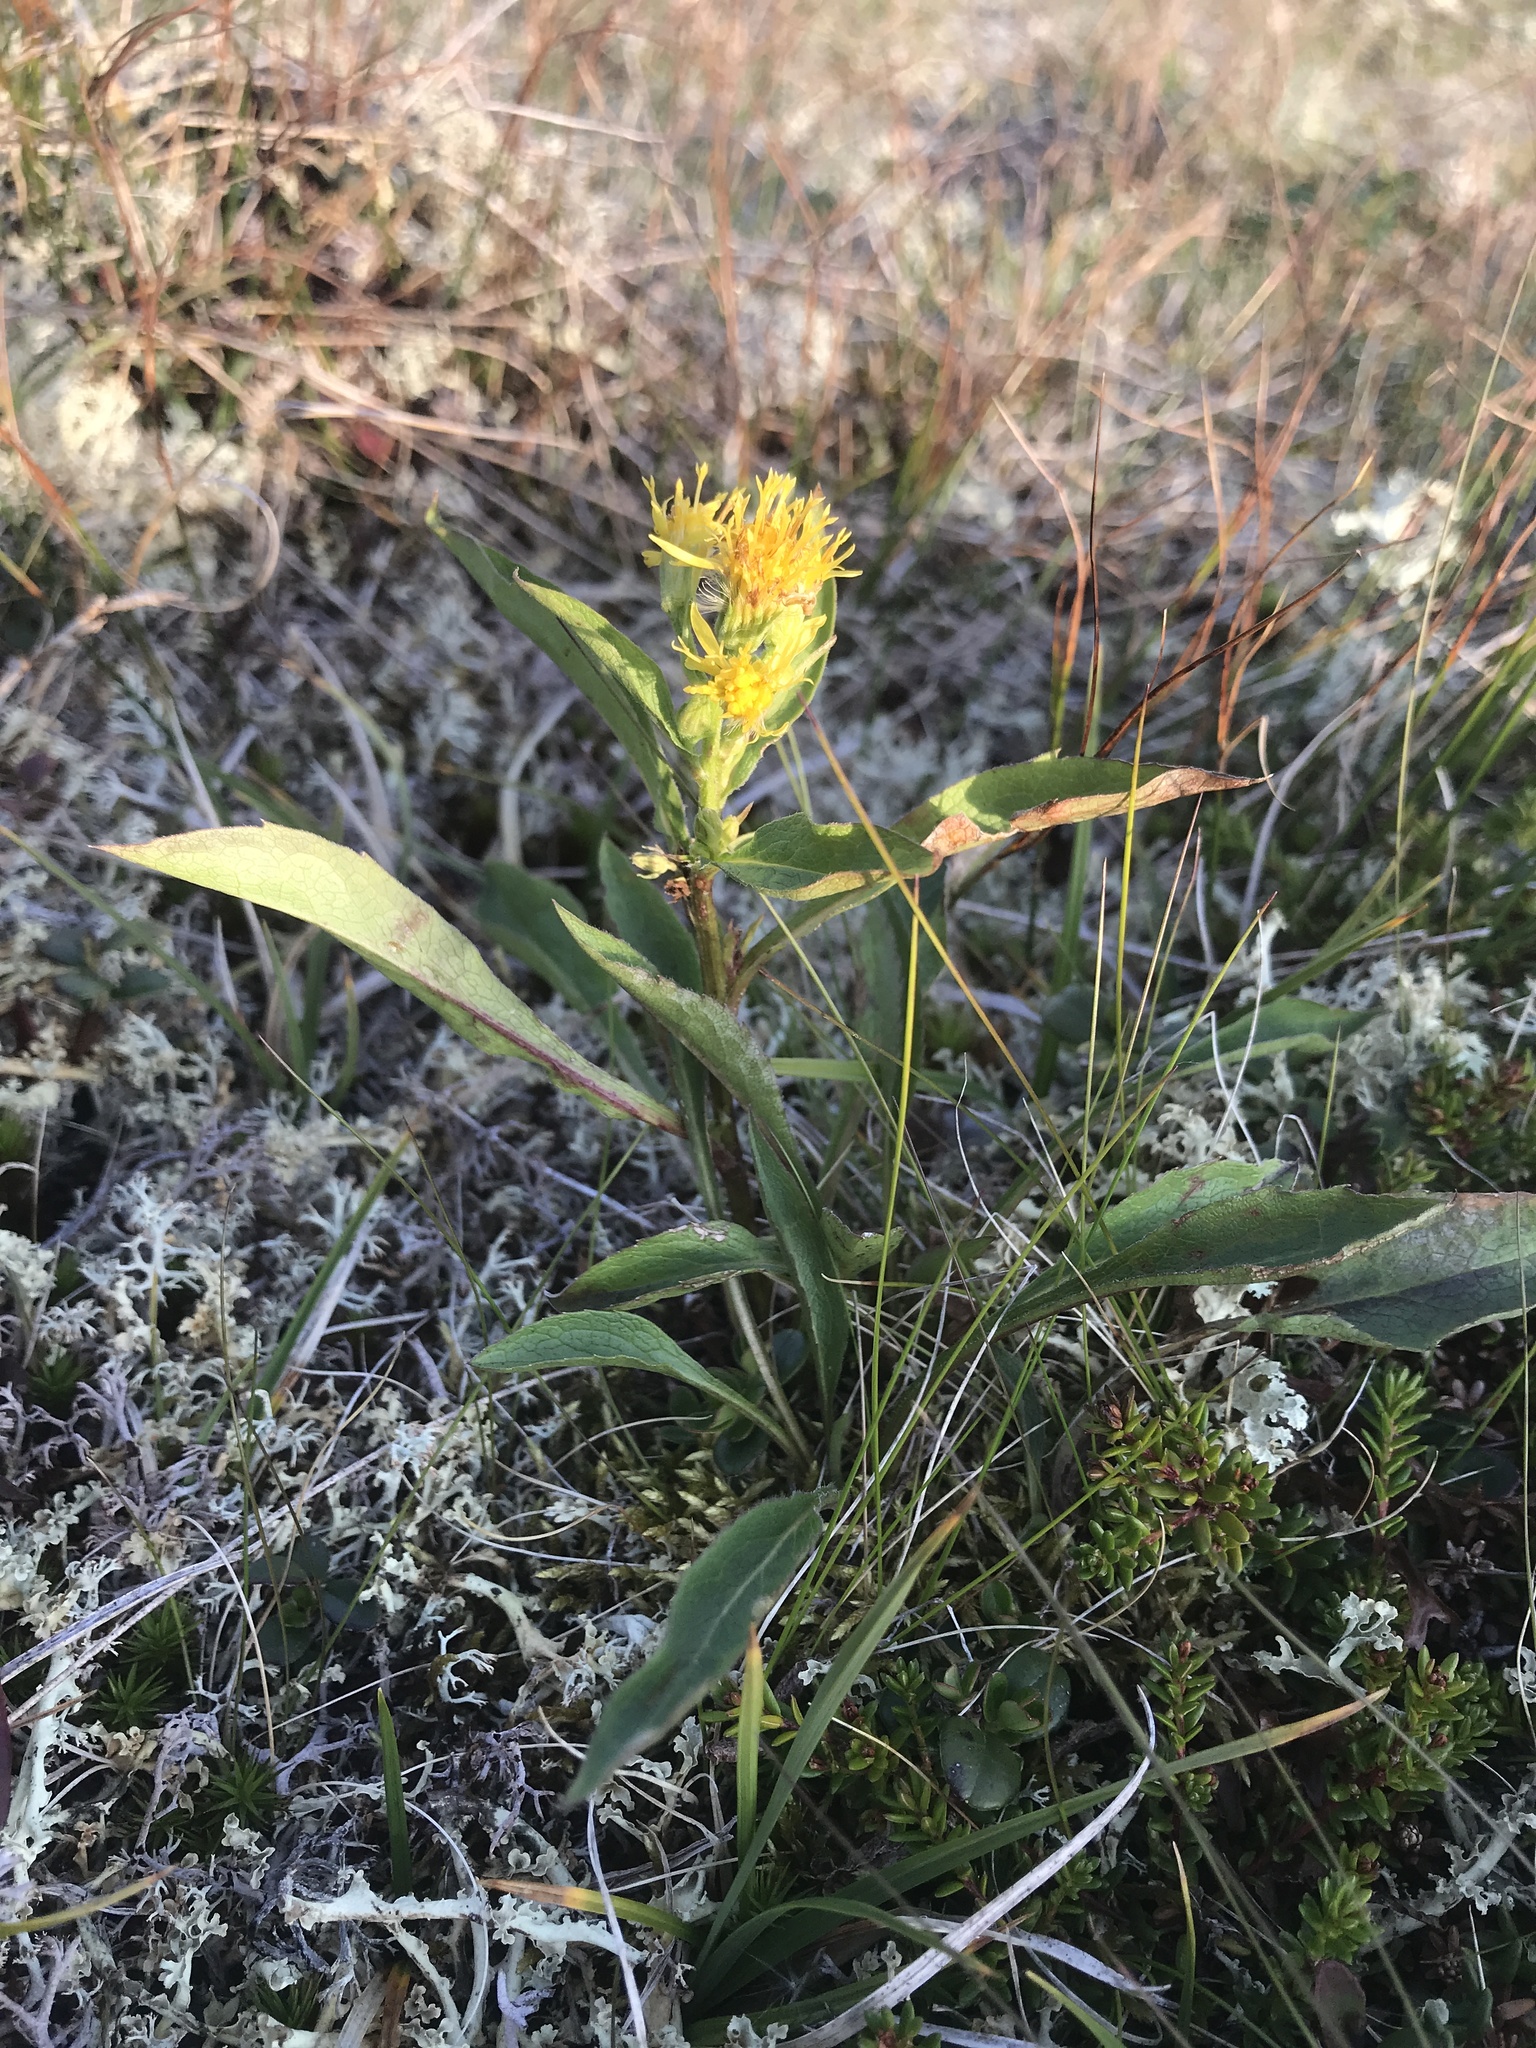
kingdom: Plantae
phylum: Tracheophyta
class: Magnoliopsida
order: Asterales
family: Asteraceae
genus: Solidago
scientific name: Solidago virgaurea
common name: Goldenrod
